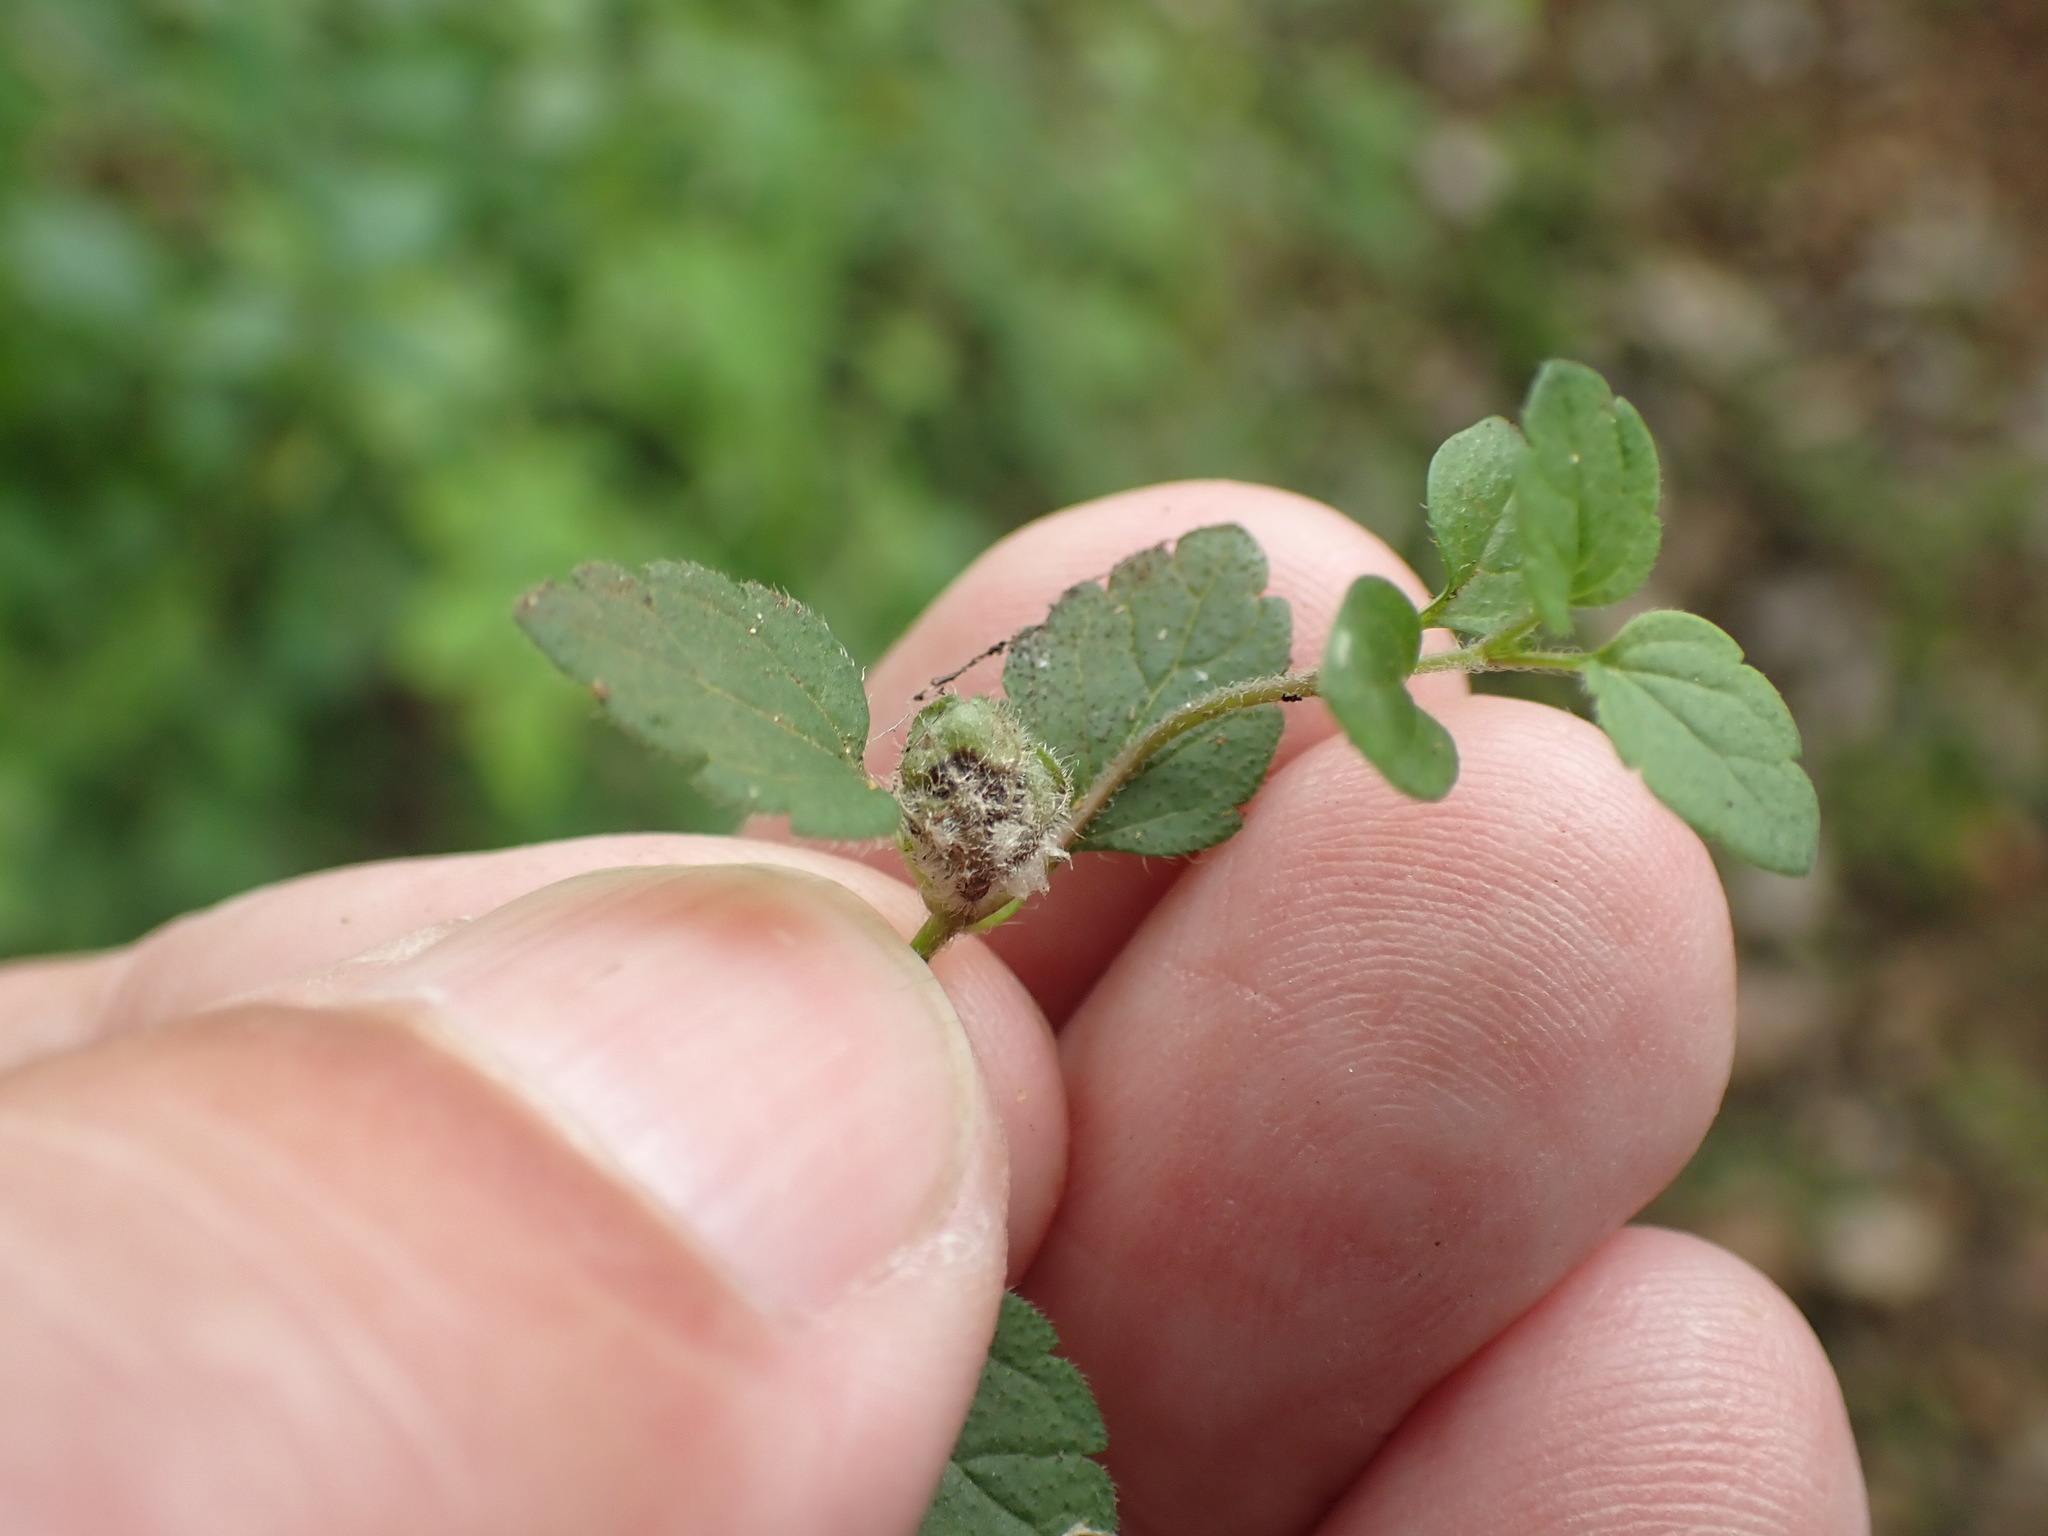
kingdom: Plantae
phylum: Tracheophyta
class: Magnoliopsida
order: Lamiales
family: Plantaginaceae
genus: Veronica
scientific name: Veronica chamaedrys
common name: Germander speedwell
